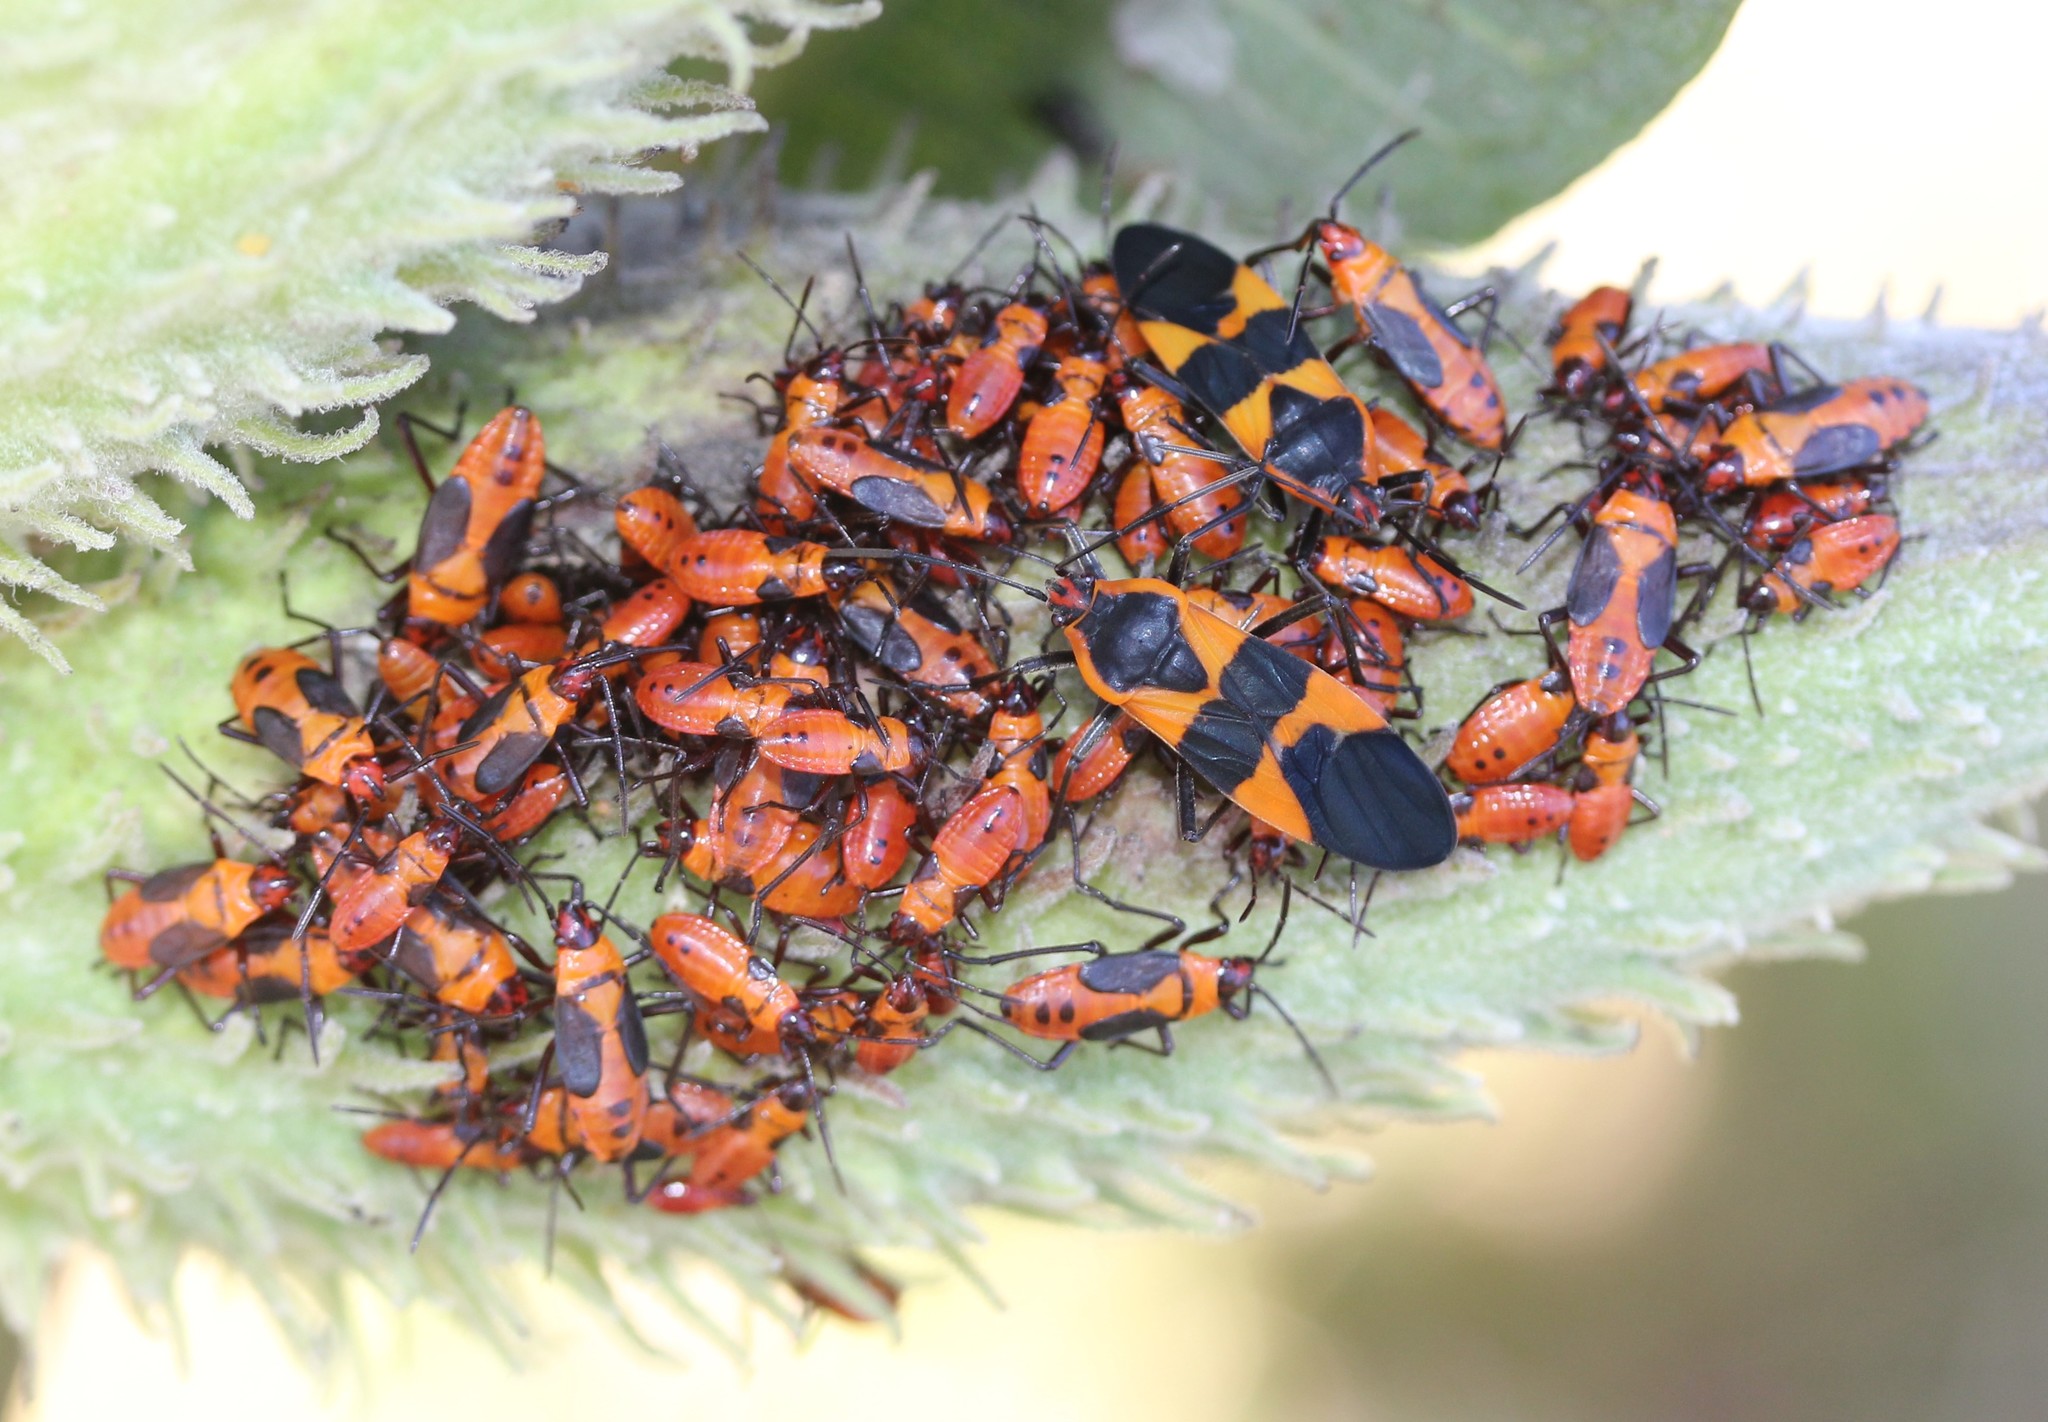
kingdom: Animalia
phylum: Arthropoda
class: Insecta
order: Hemiptera
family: Lygaeidae
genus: Oncopeltus
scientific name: Oncopeltus fasciatus
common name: Large milkweed bug
